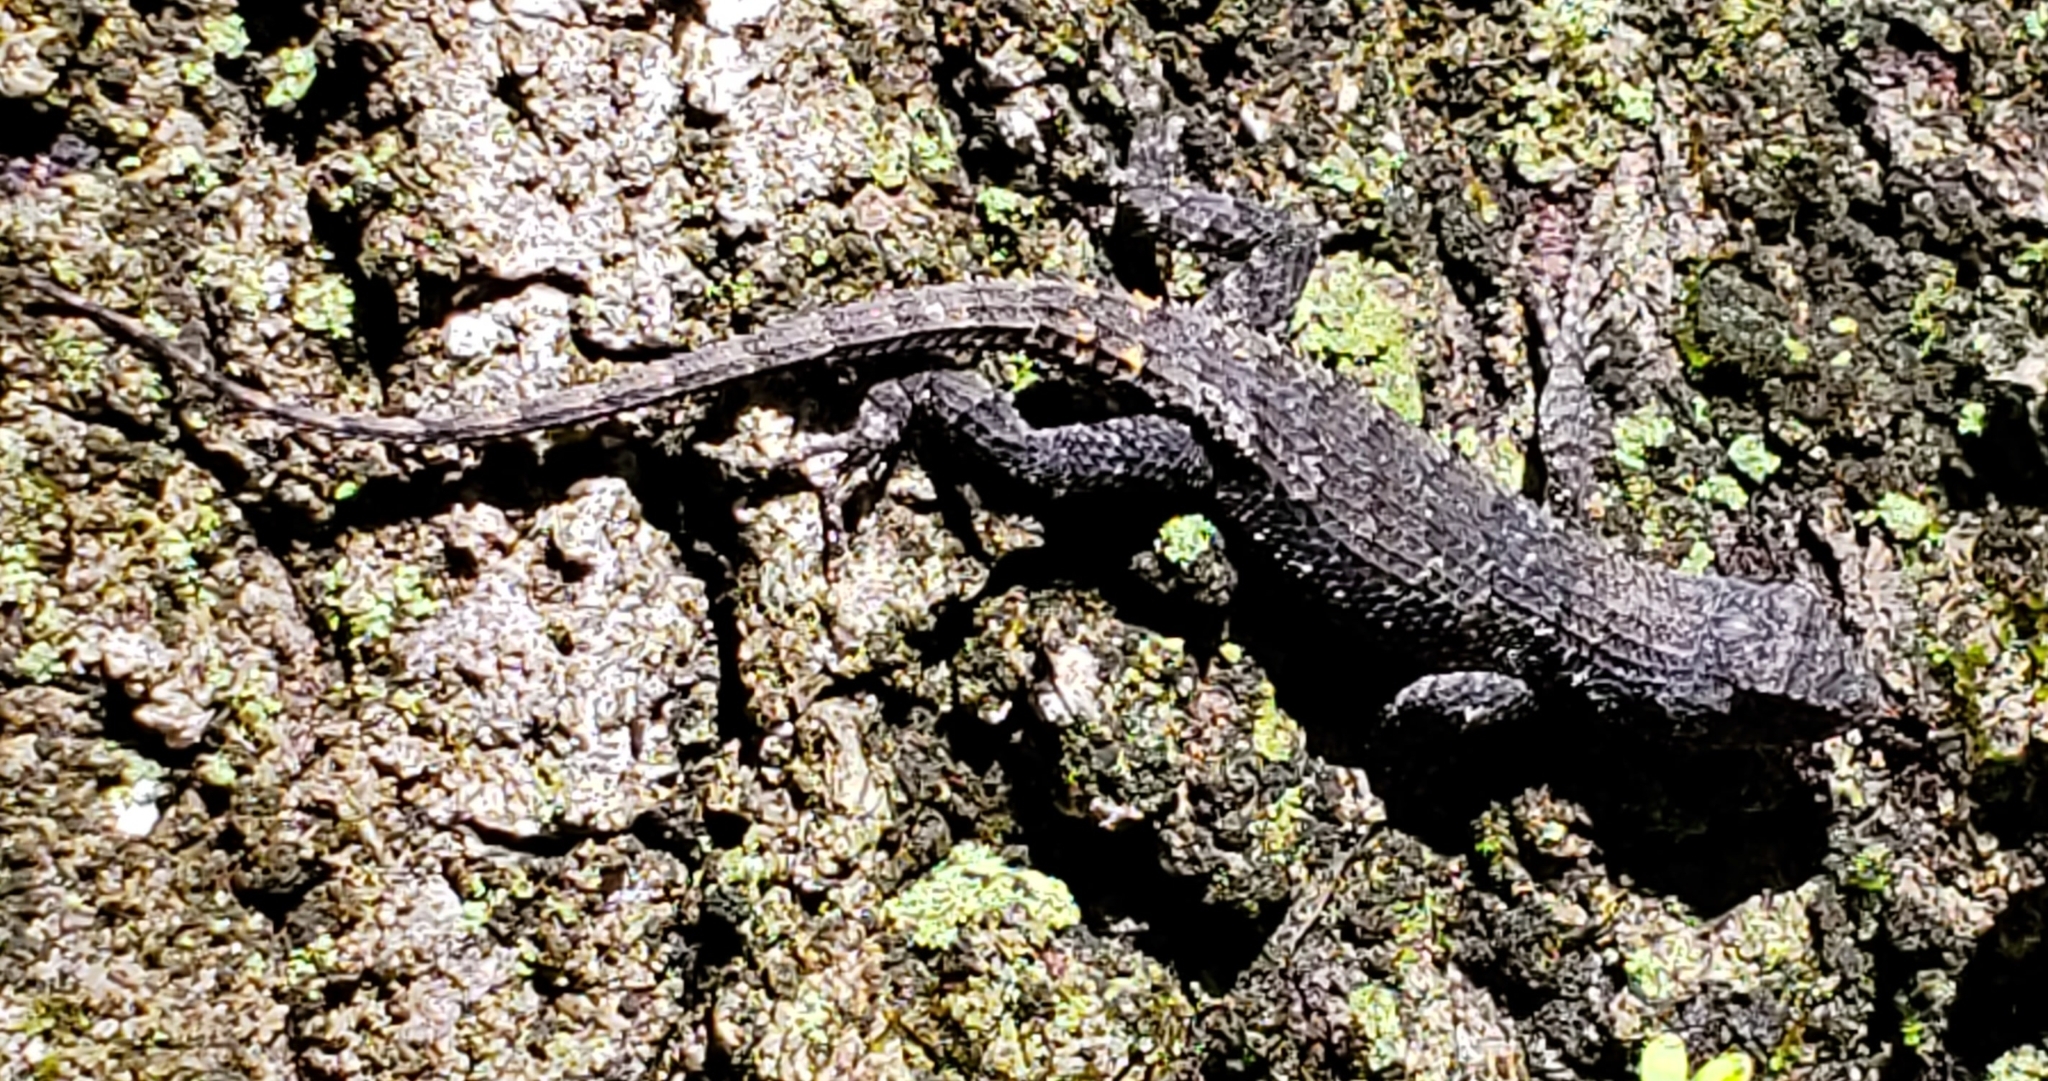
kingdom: Animalia
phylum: Chordata
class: Squamata
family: Phrynosomatidae
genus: Sceloporus
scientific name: Sceloporus undulatus
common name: Eastern fence lizard
